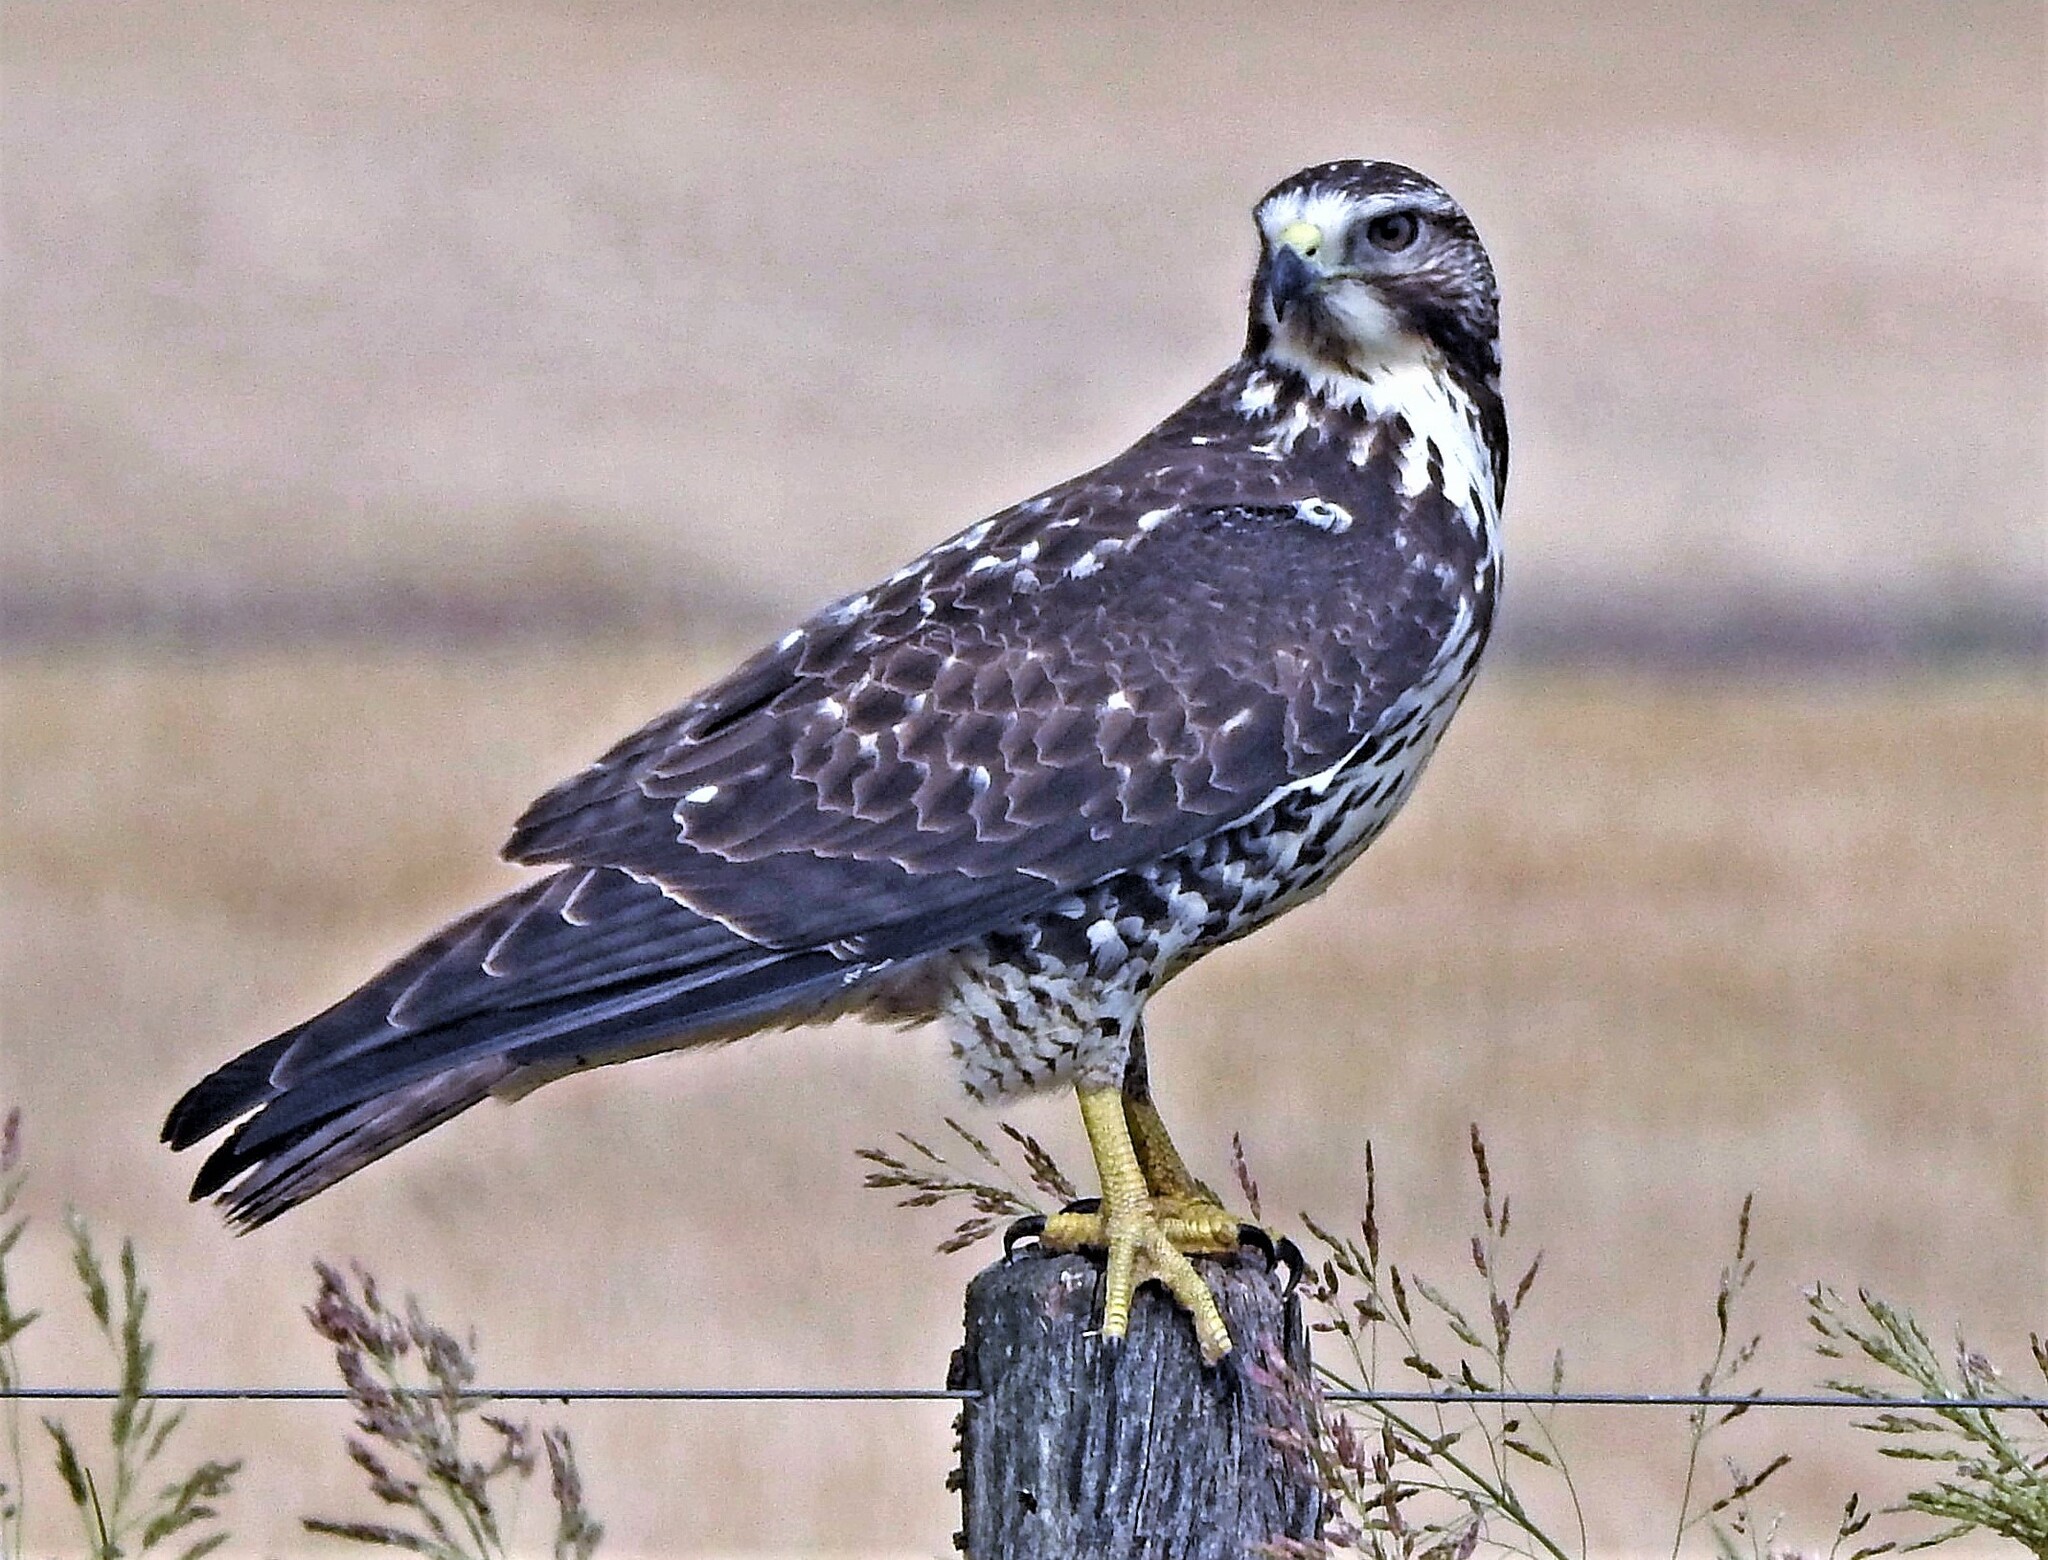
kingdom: Animalia
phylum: Chordata
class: Aves
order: Accipitriformes
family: Accipitridae
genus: Buteo
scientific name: Buteo swainsoni
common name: Swainson's hawk
